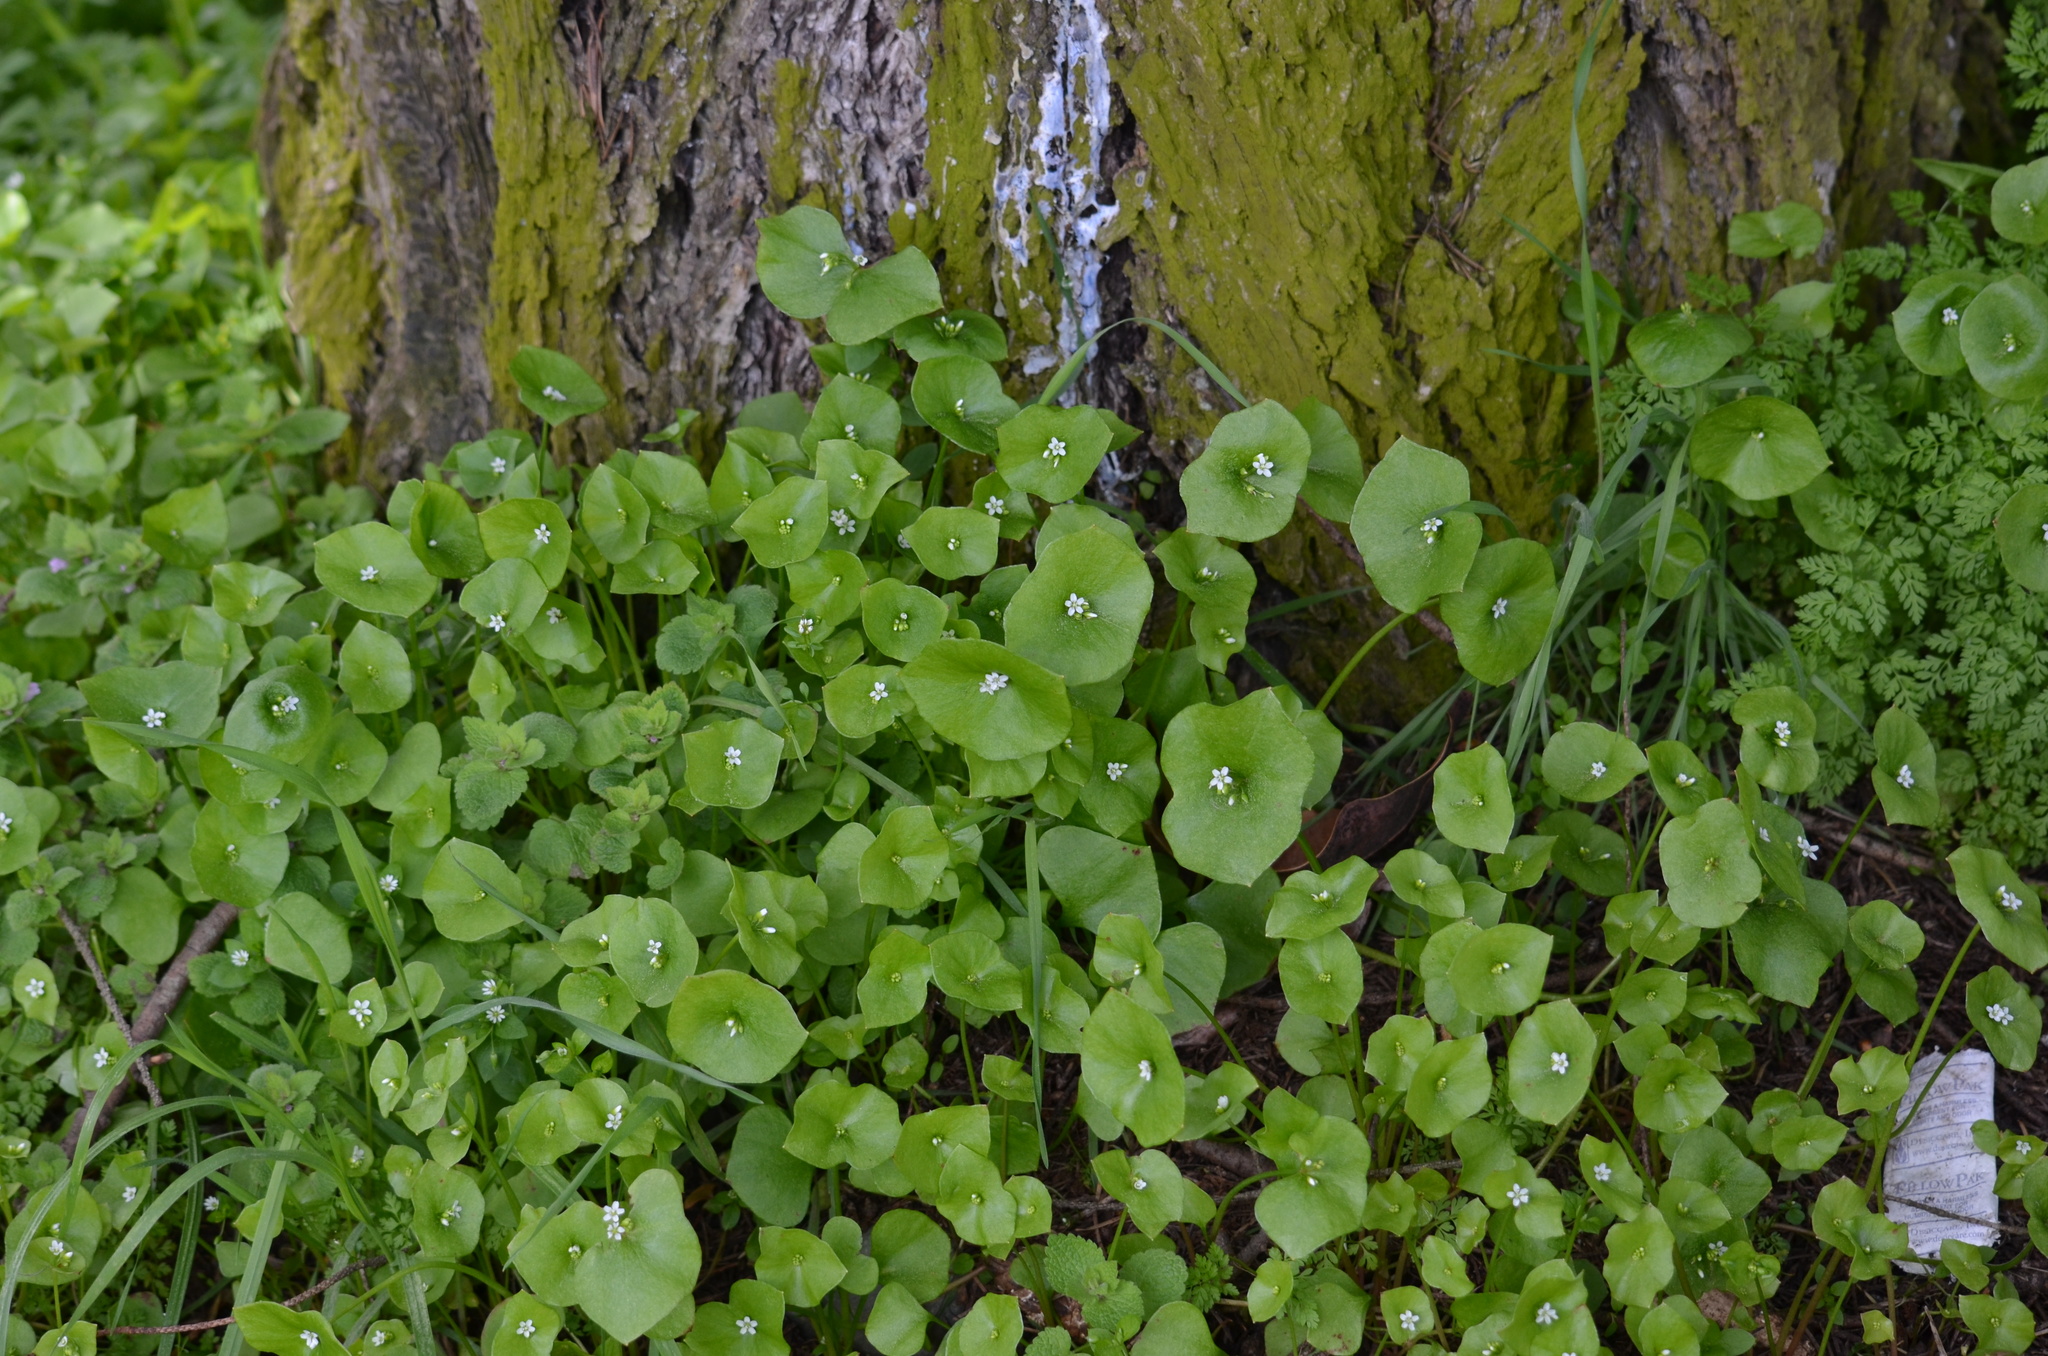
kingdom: Plantae
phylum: Tracheophyta
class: Magnoliopsida
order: Caryophyllales
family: Montiaceae
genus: Claytonia
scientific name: Claytonia perfoliata
